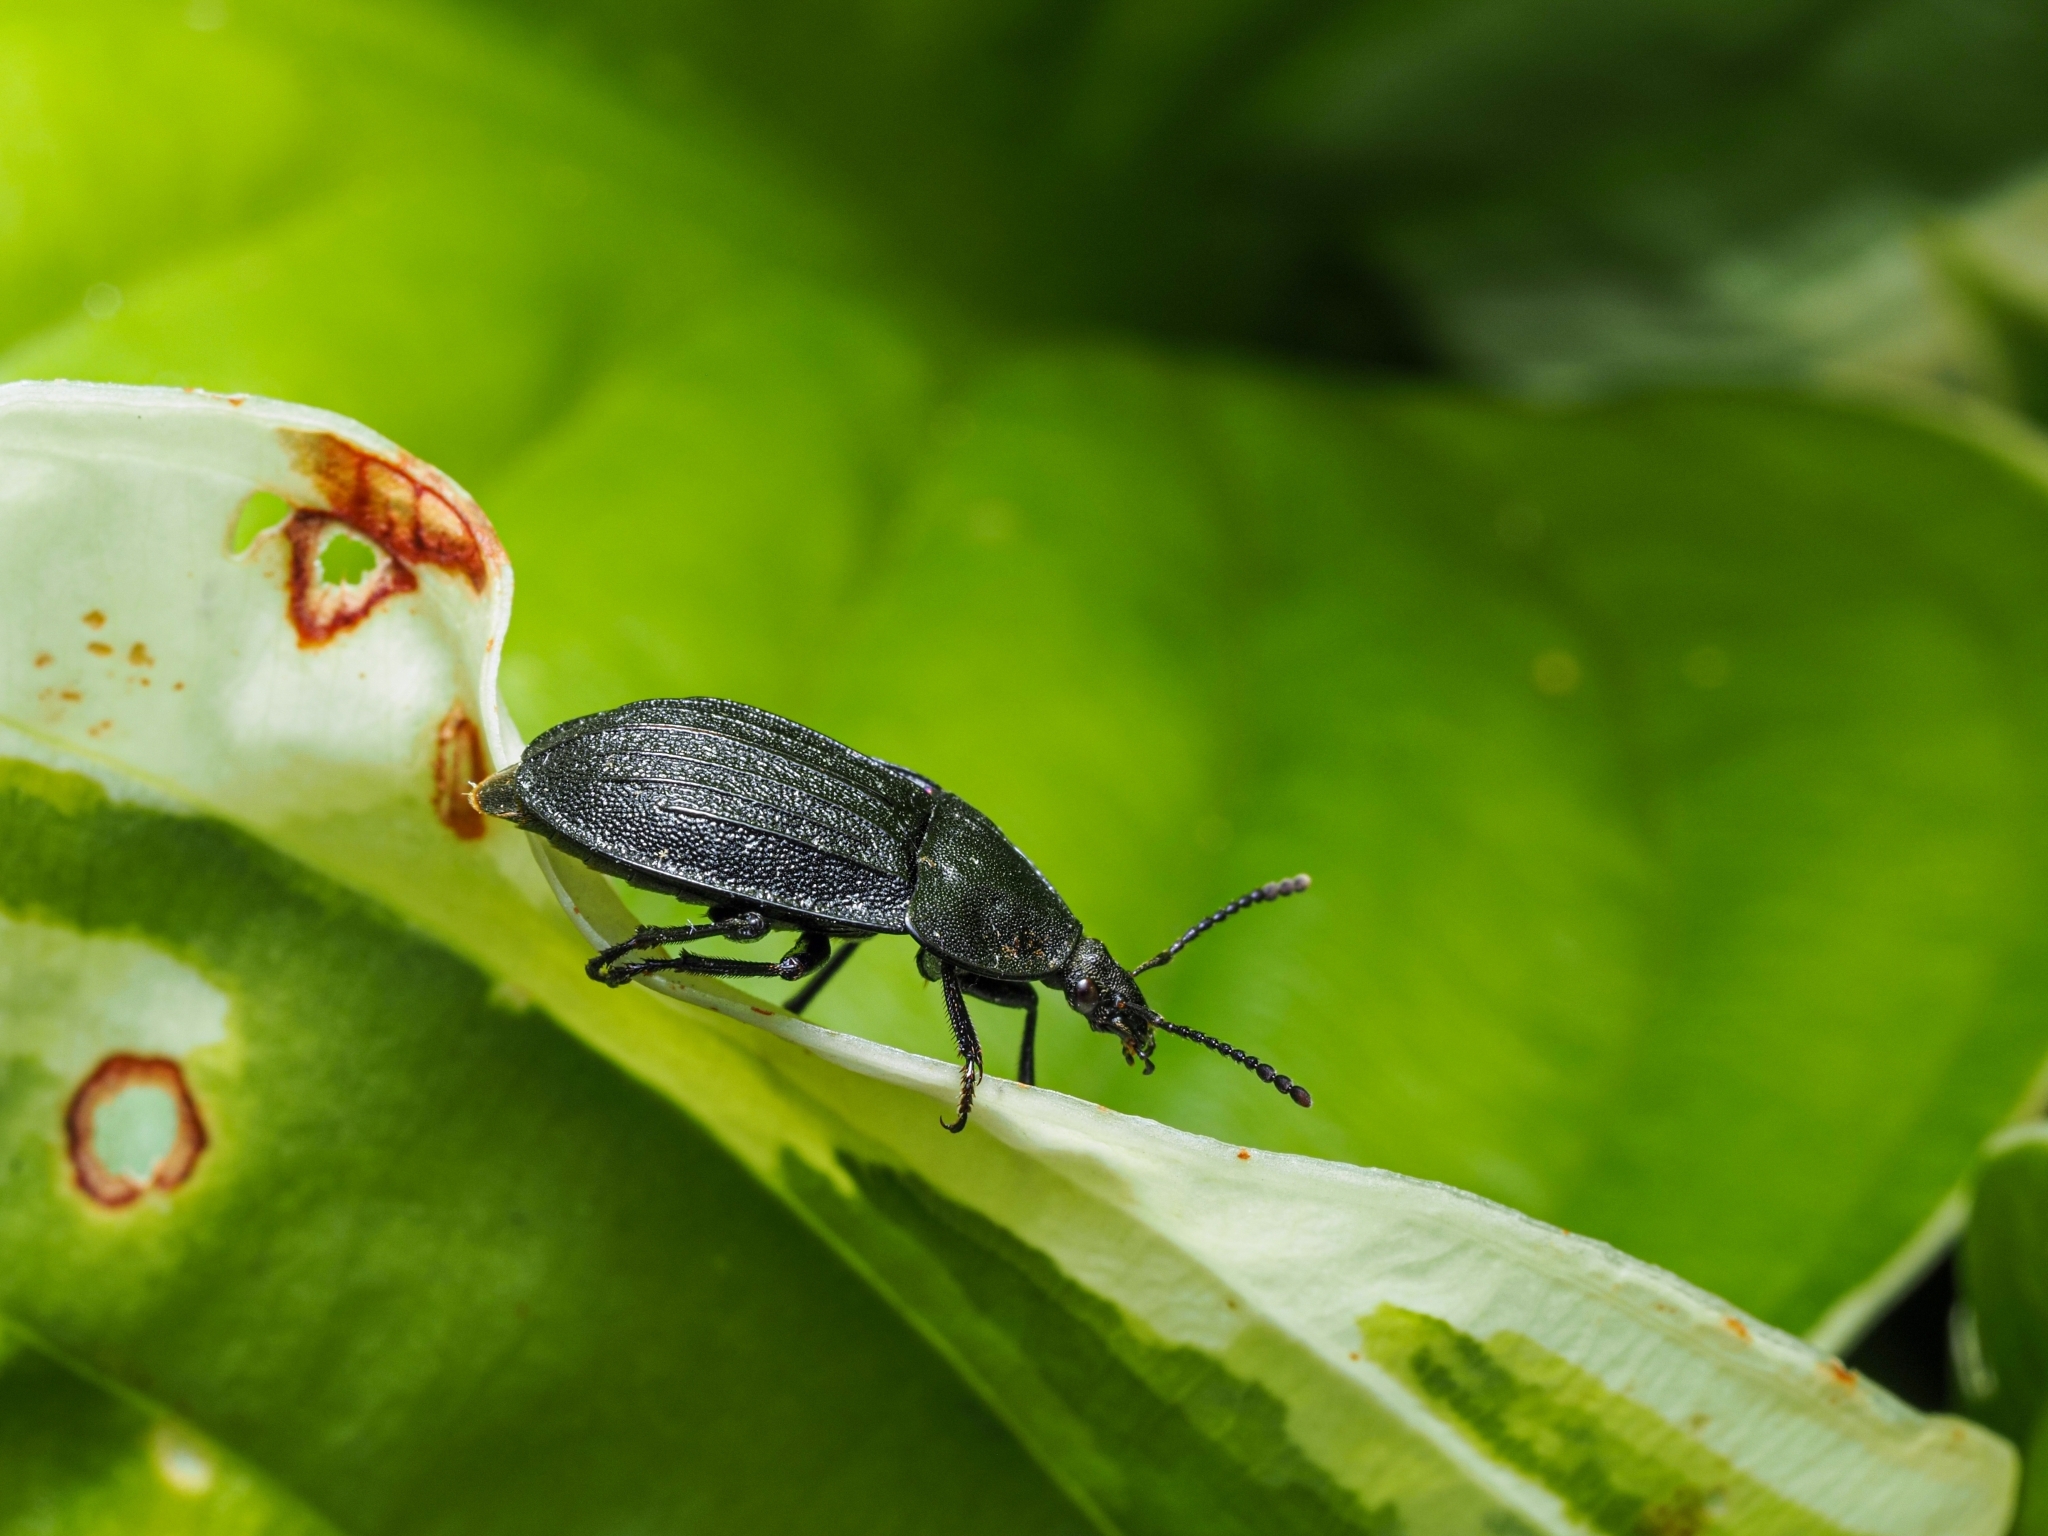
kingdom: Animalia
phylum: Arthropoda
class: Insecta
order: Coleoptera
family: Staphylinidae
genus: Silpha
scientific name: Silpha atrata
